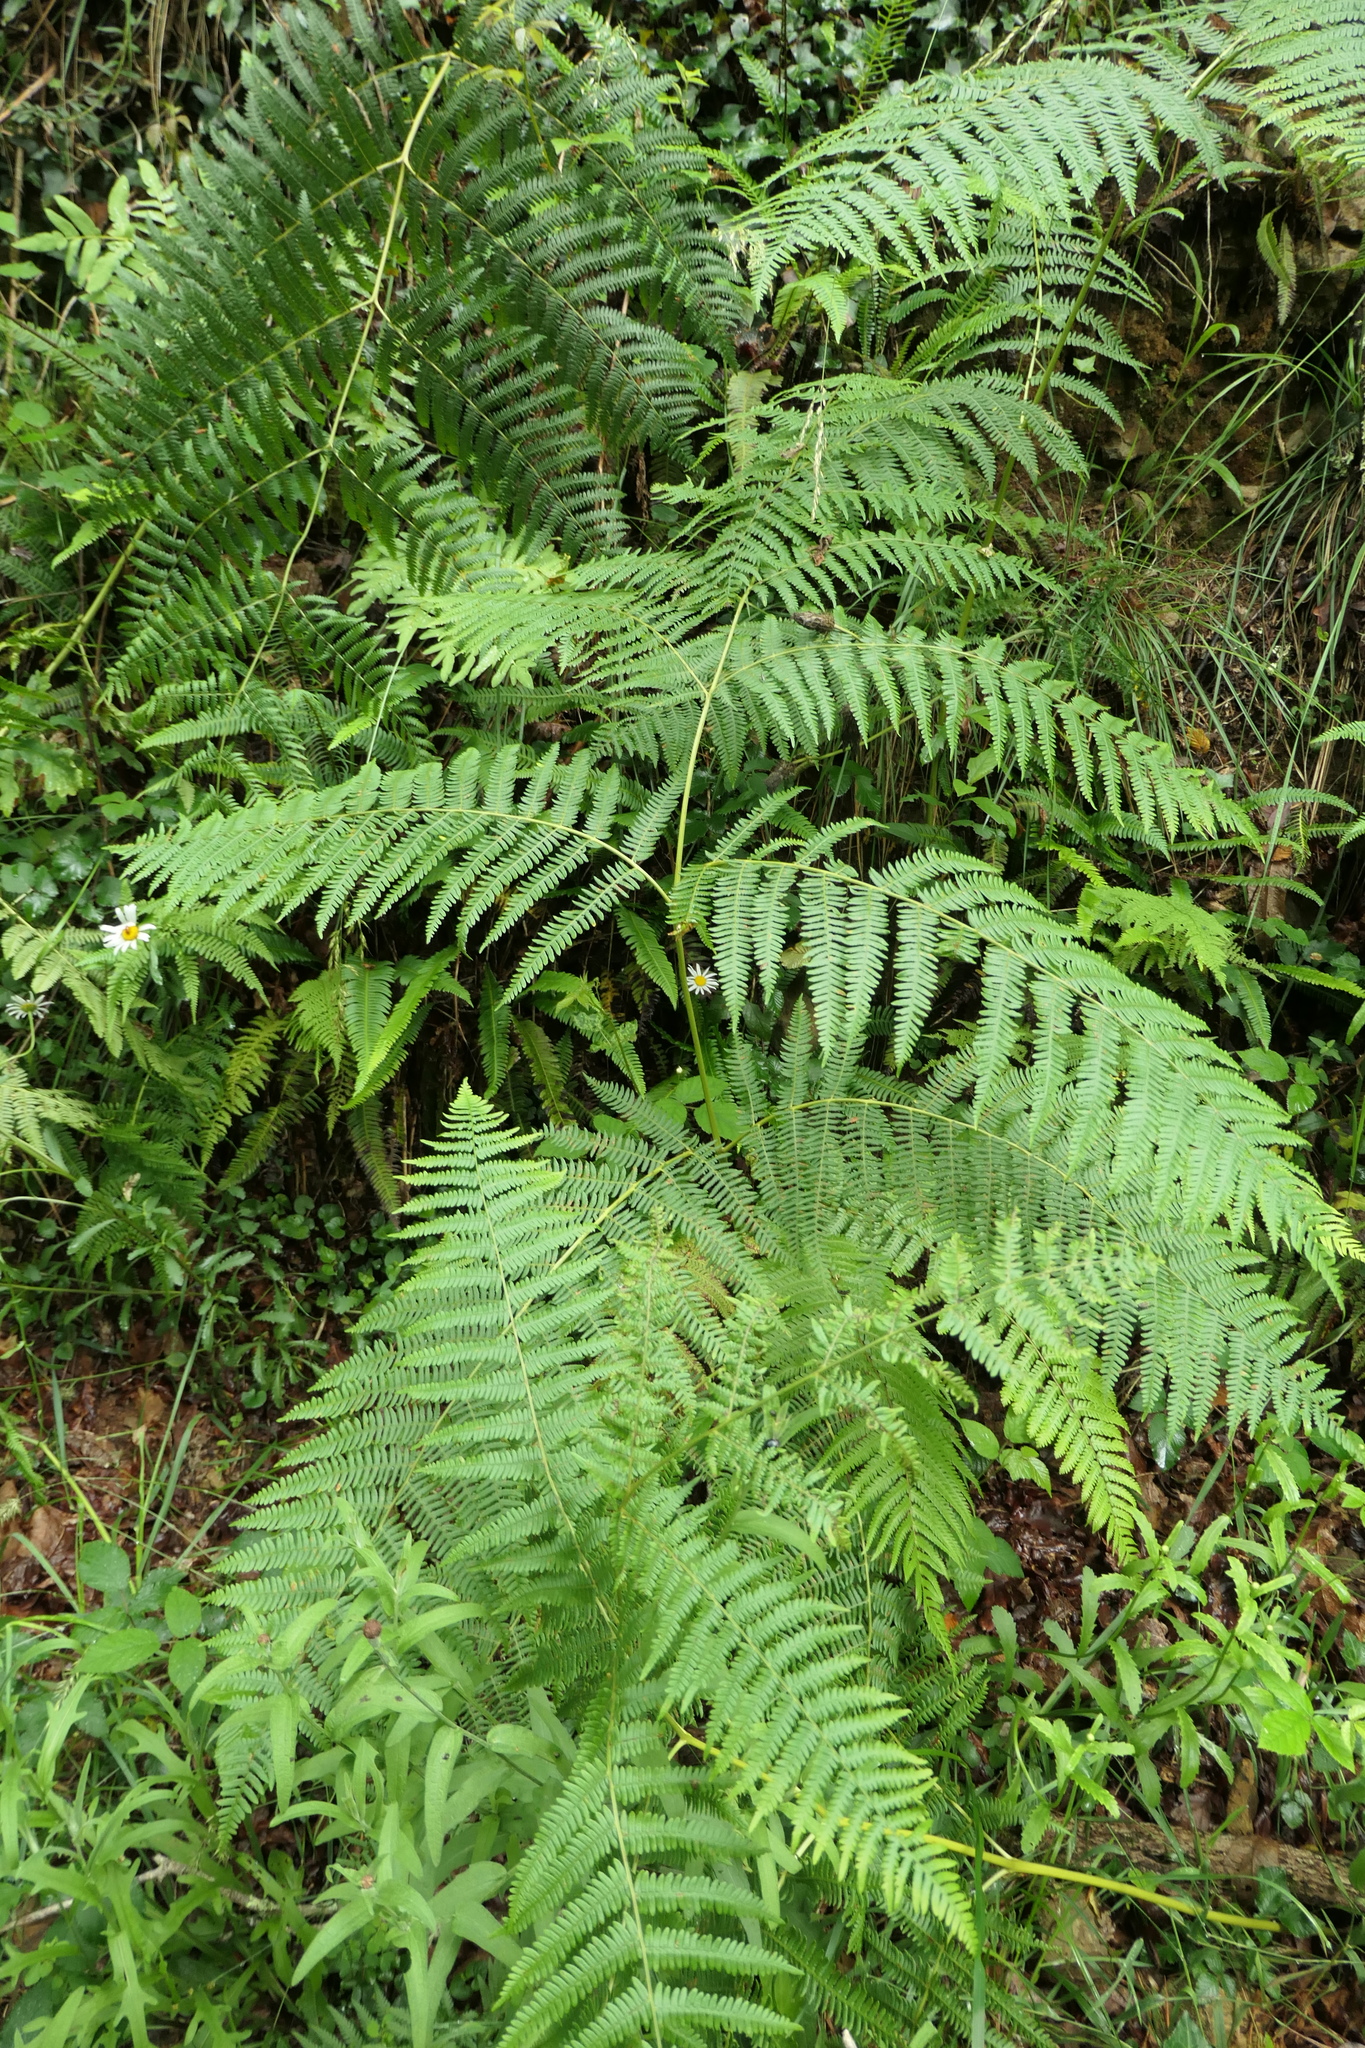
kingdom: Plantae
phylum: Tracheophyta
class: Polypodiopsida
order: Polypodiales
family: Dennstaedtiaceae
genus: Pteridium
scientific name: Pteridium aquilinum
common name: Bracken
